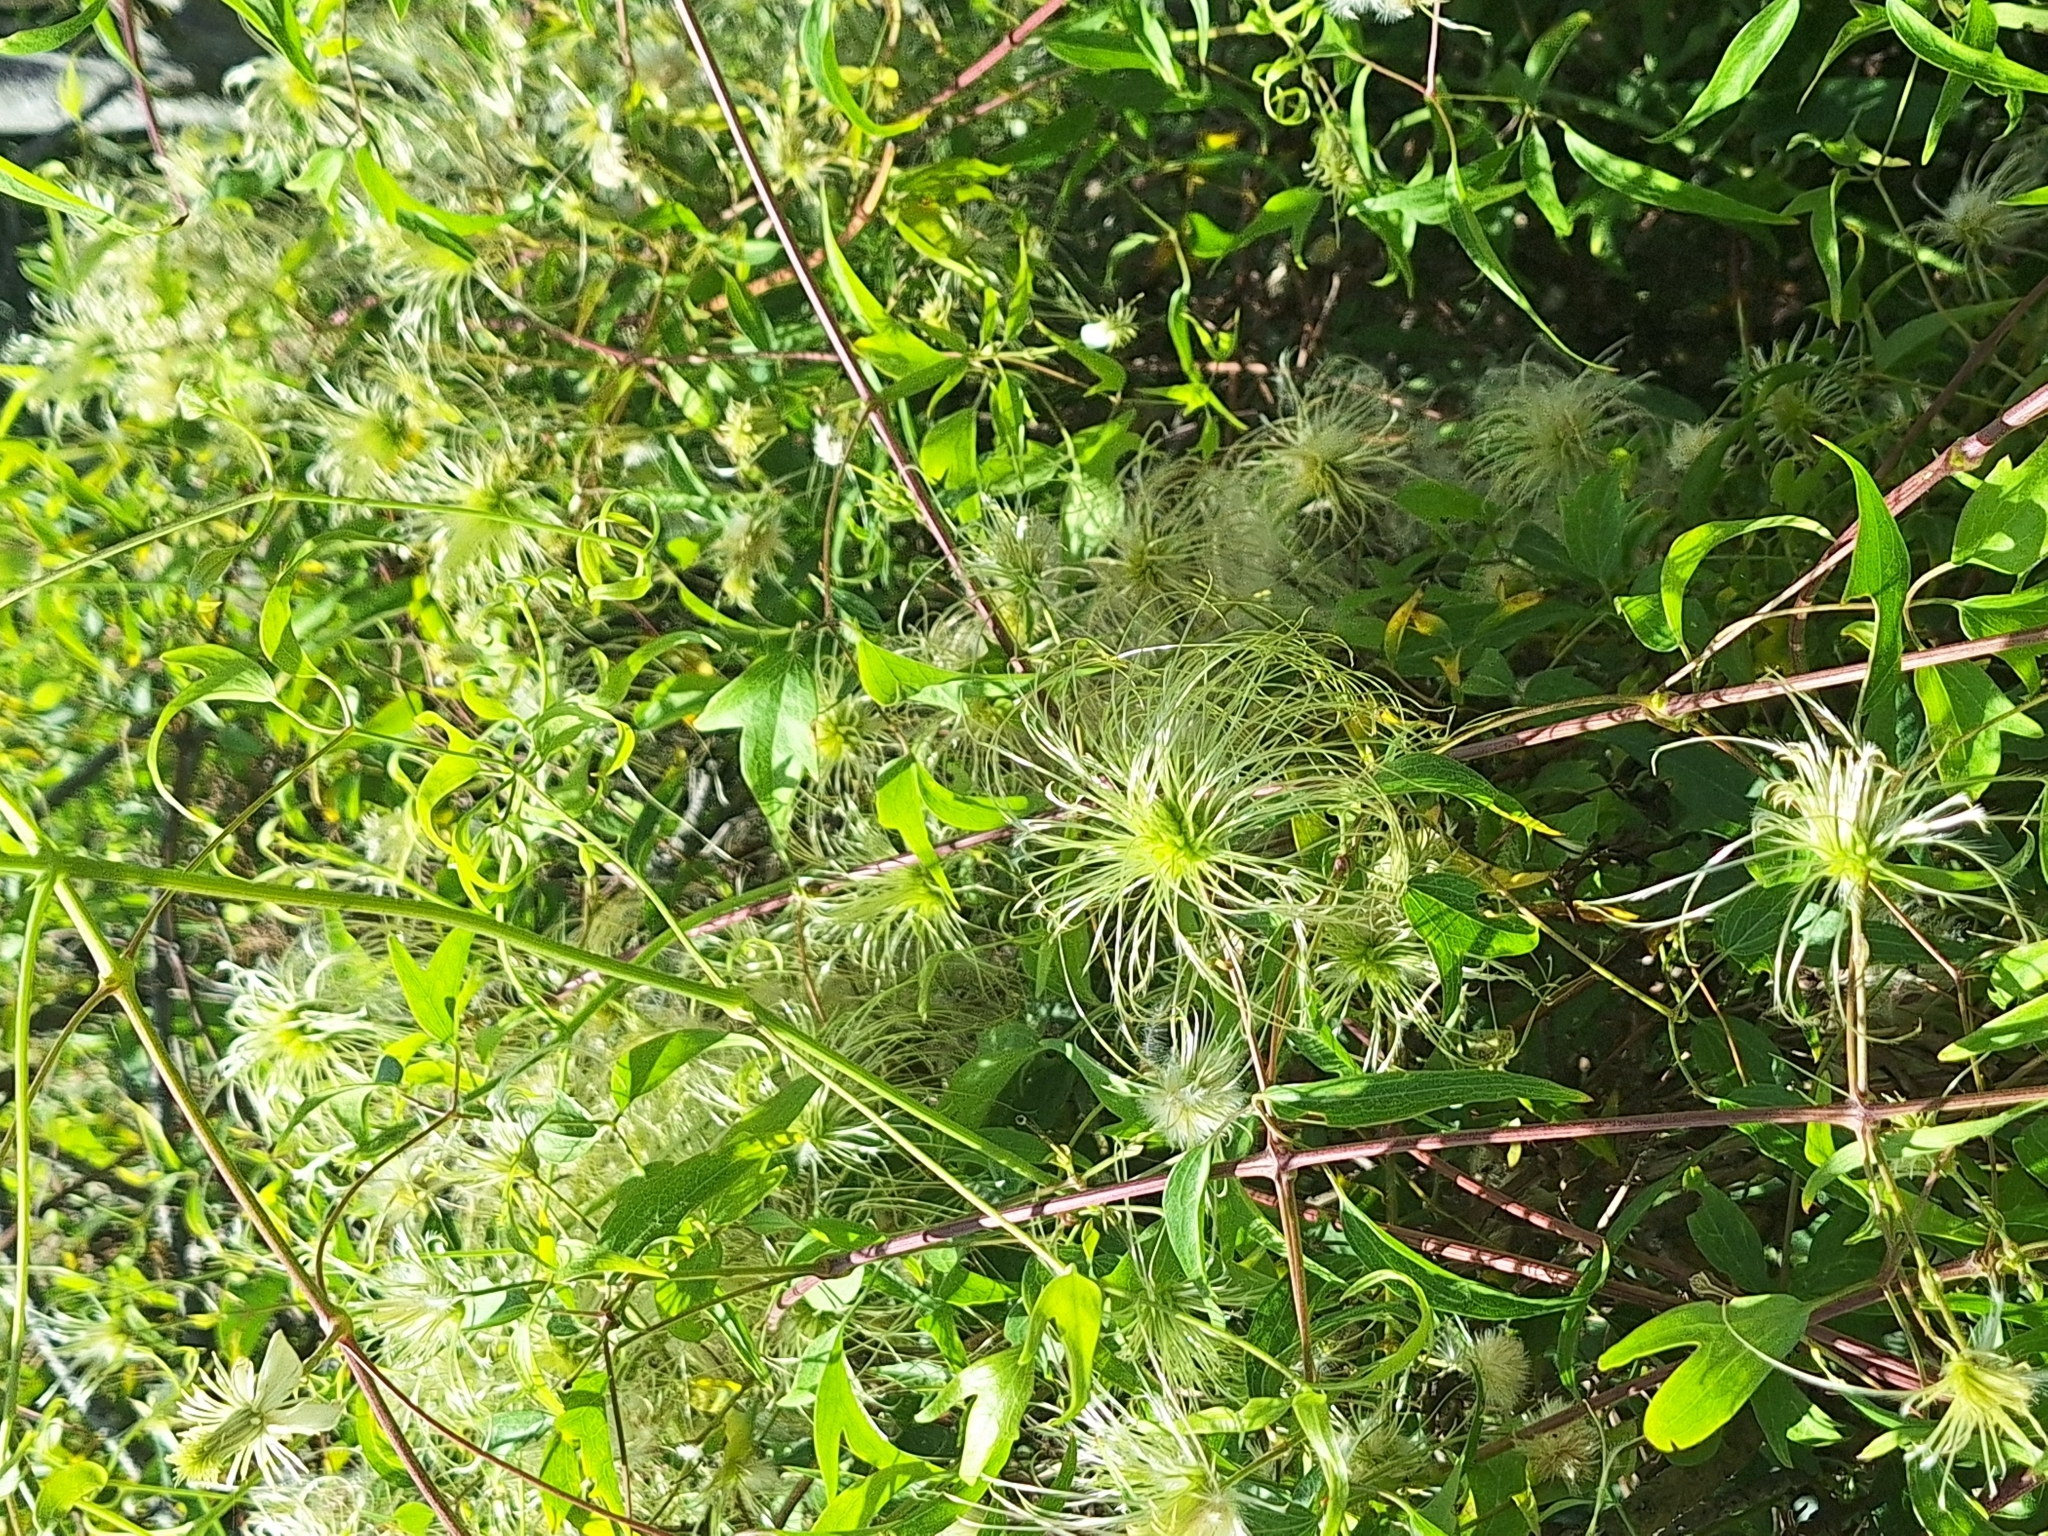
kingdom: Plantae
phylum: Tracheophyta
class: Magnoliopsida
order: Ranunculales
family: Ranunculaceae
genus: Clematis
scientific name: Clematis montevidensis
